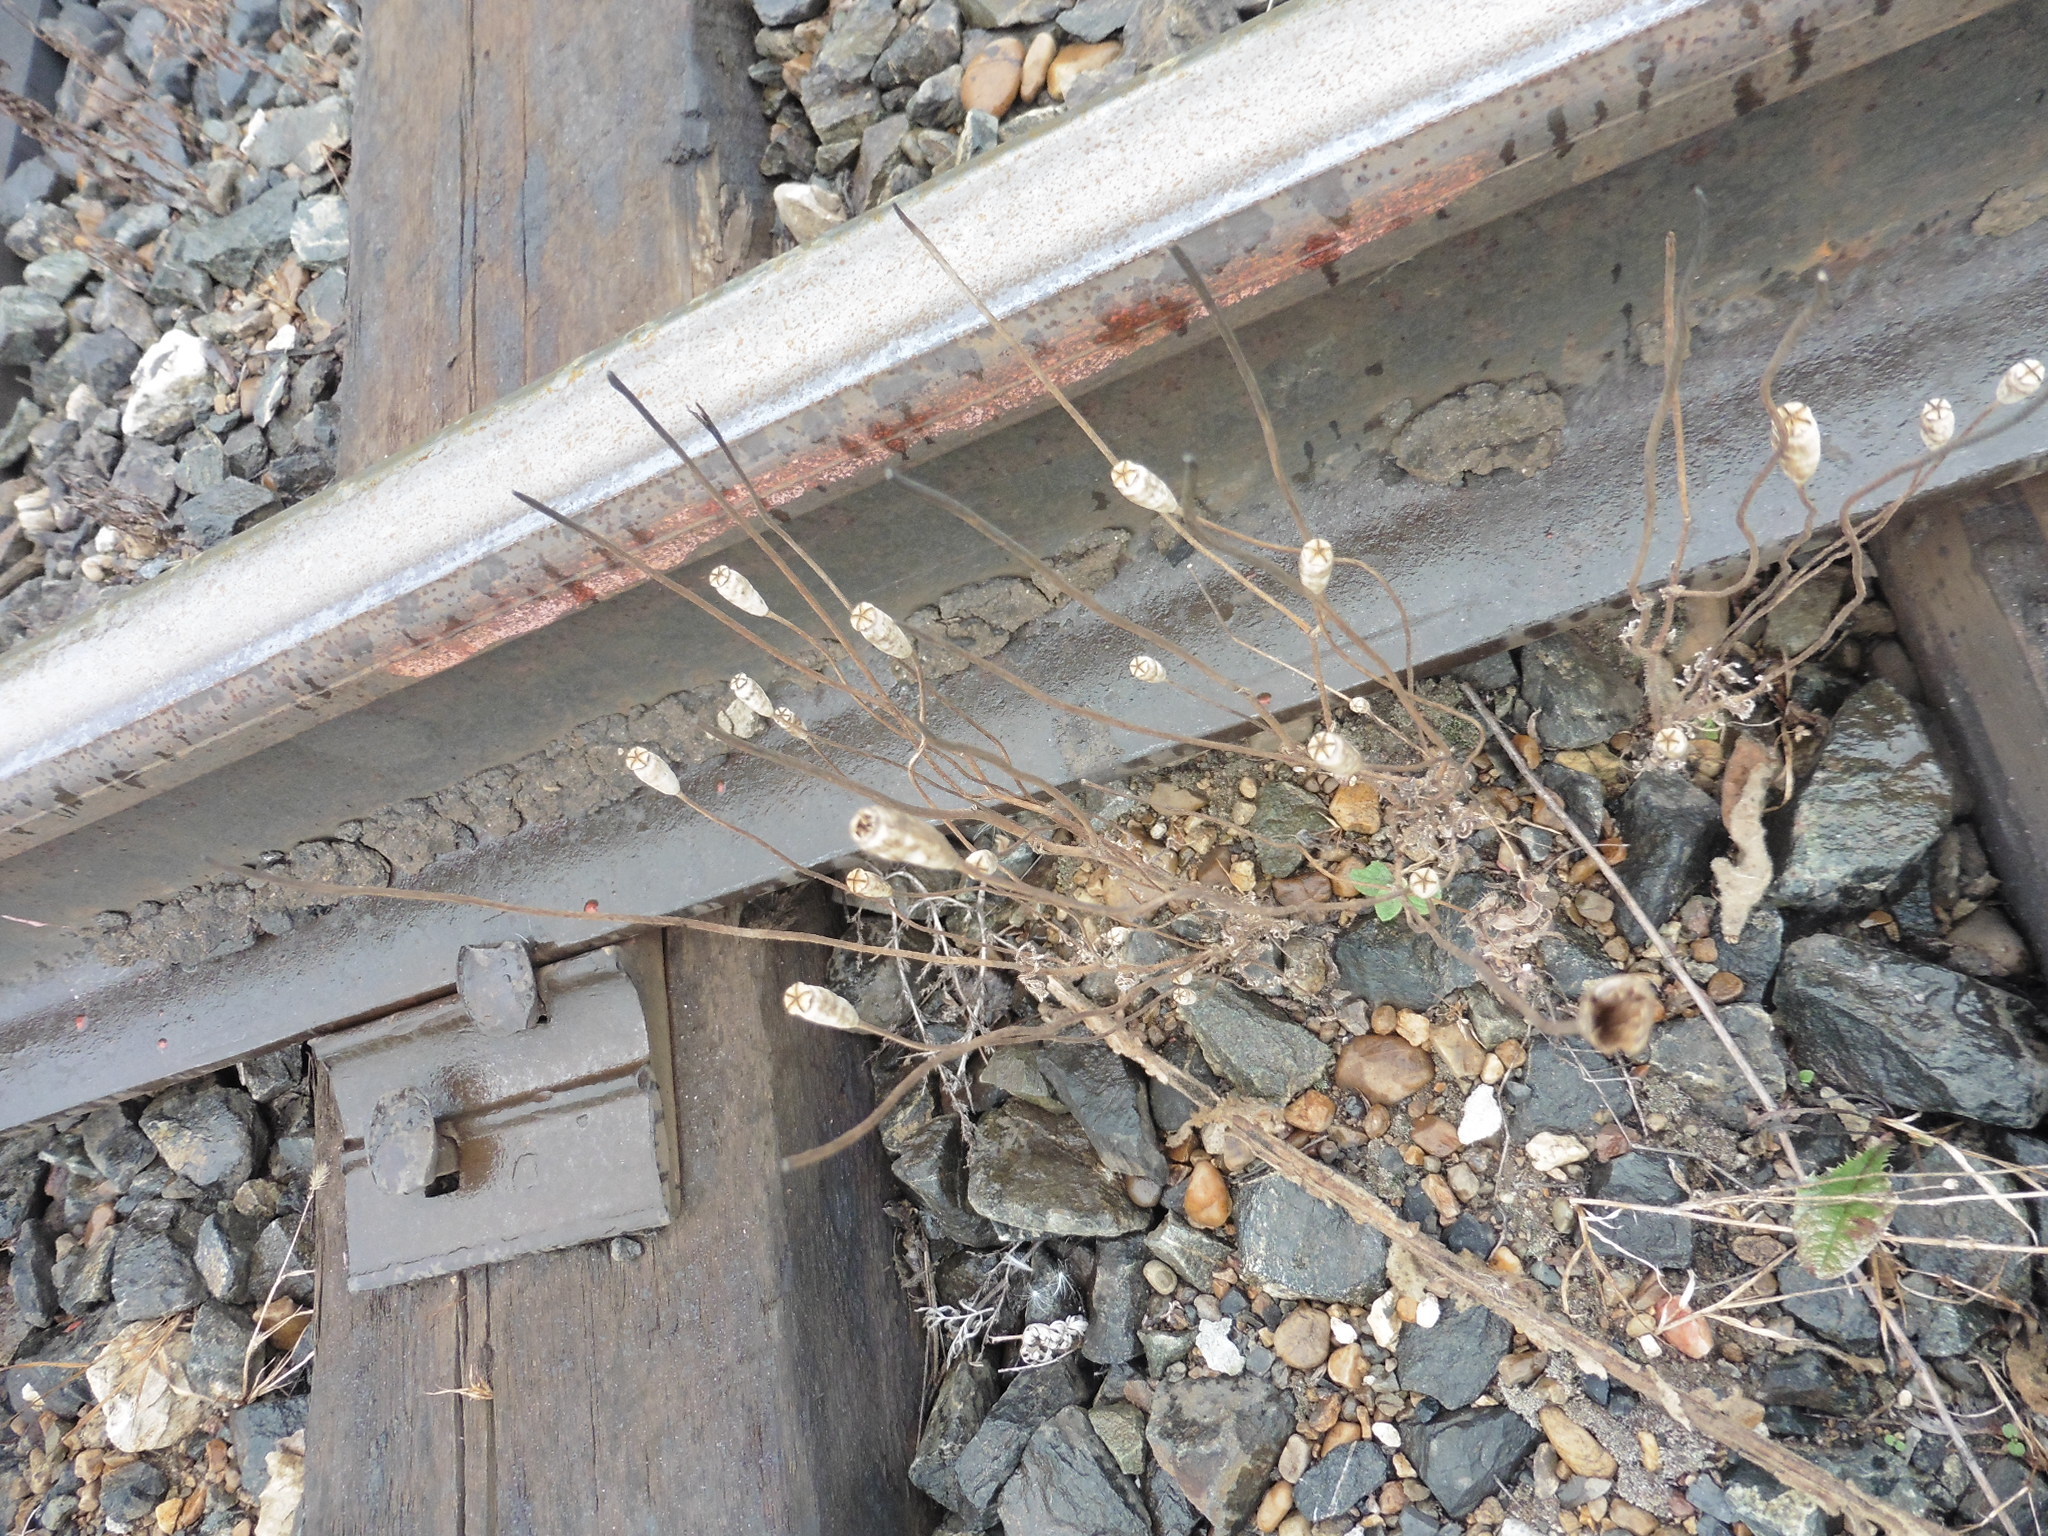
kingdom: Plantae
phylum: Tracheophyta
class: Magnoliopsida
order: Ranunculales
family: Papaveraceae
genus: Papaver
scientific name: Papaver dubium
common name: Long-headed poppy
